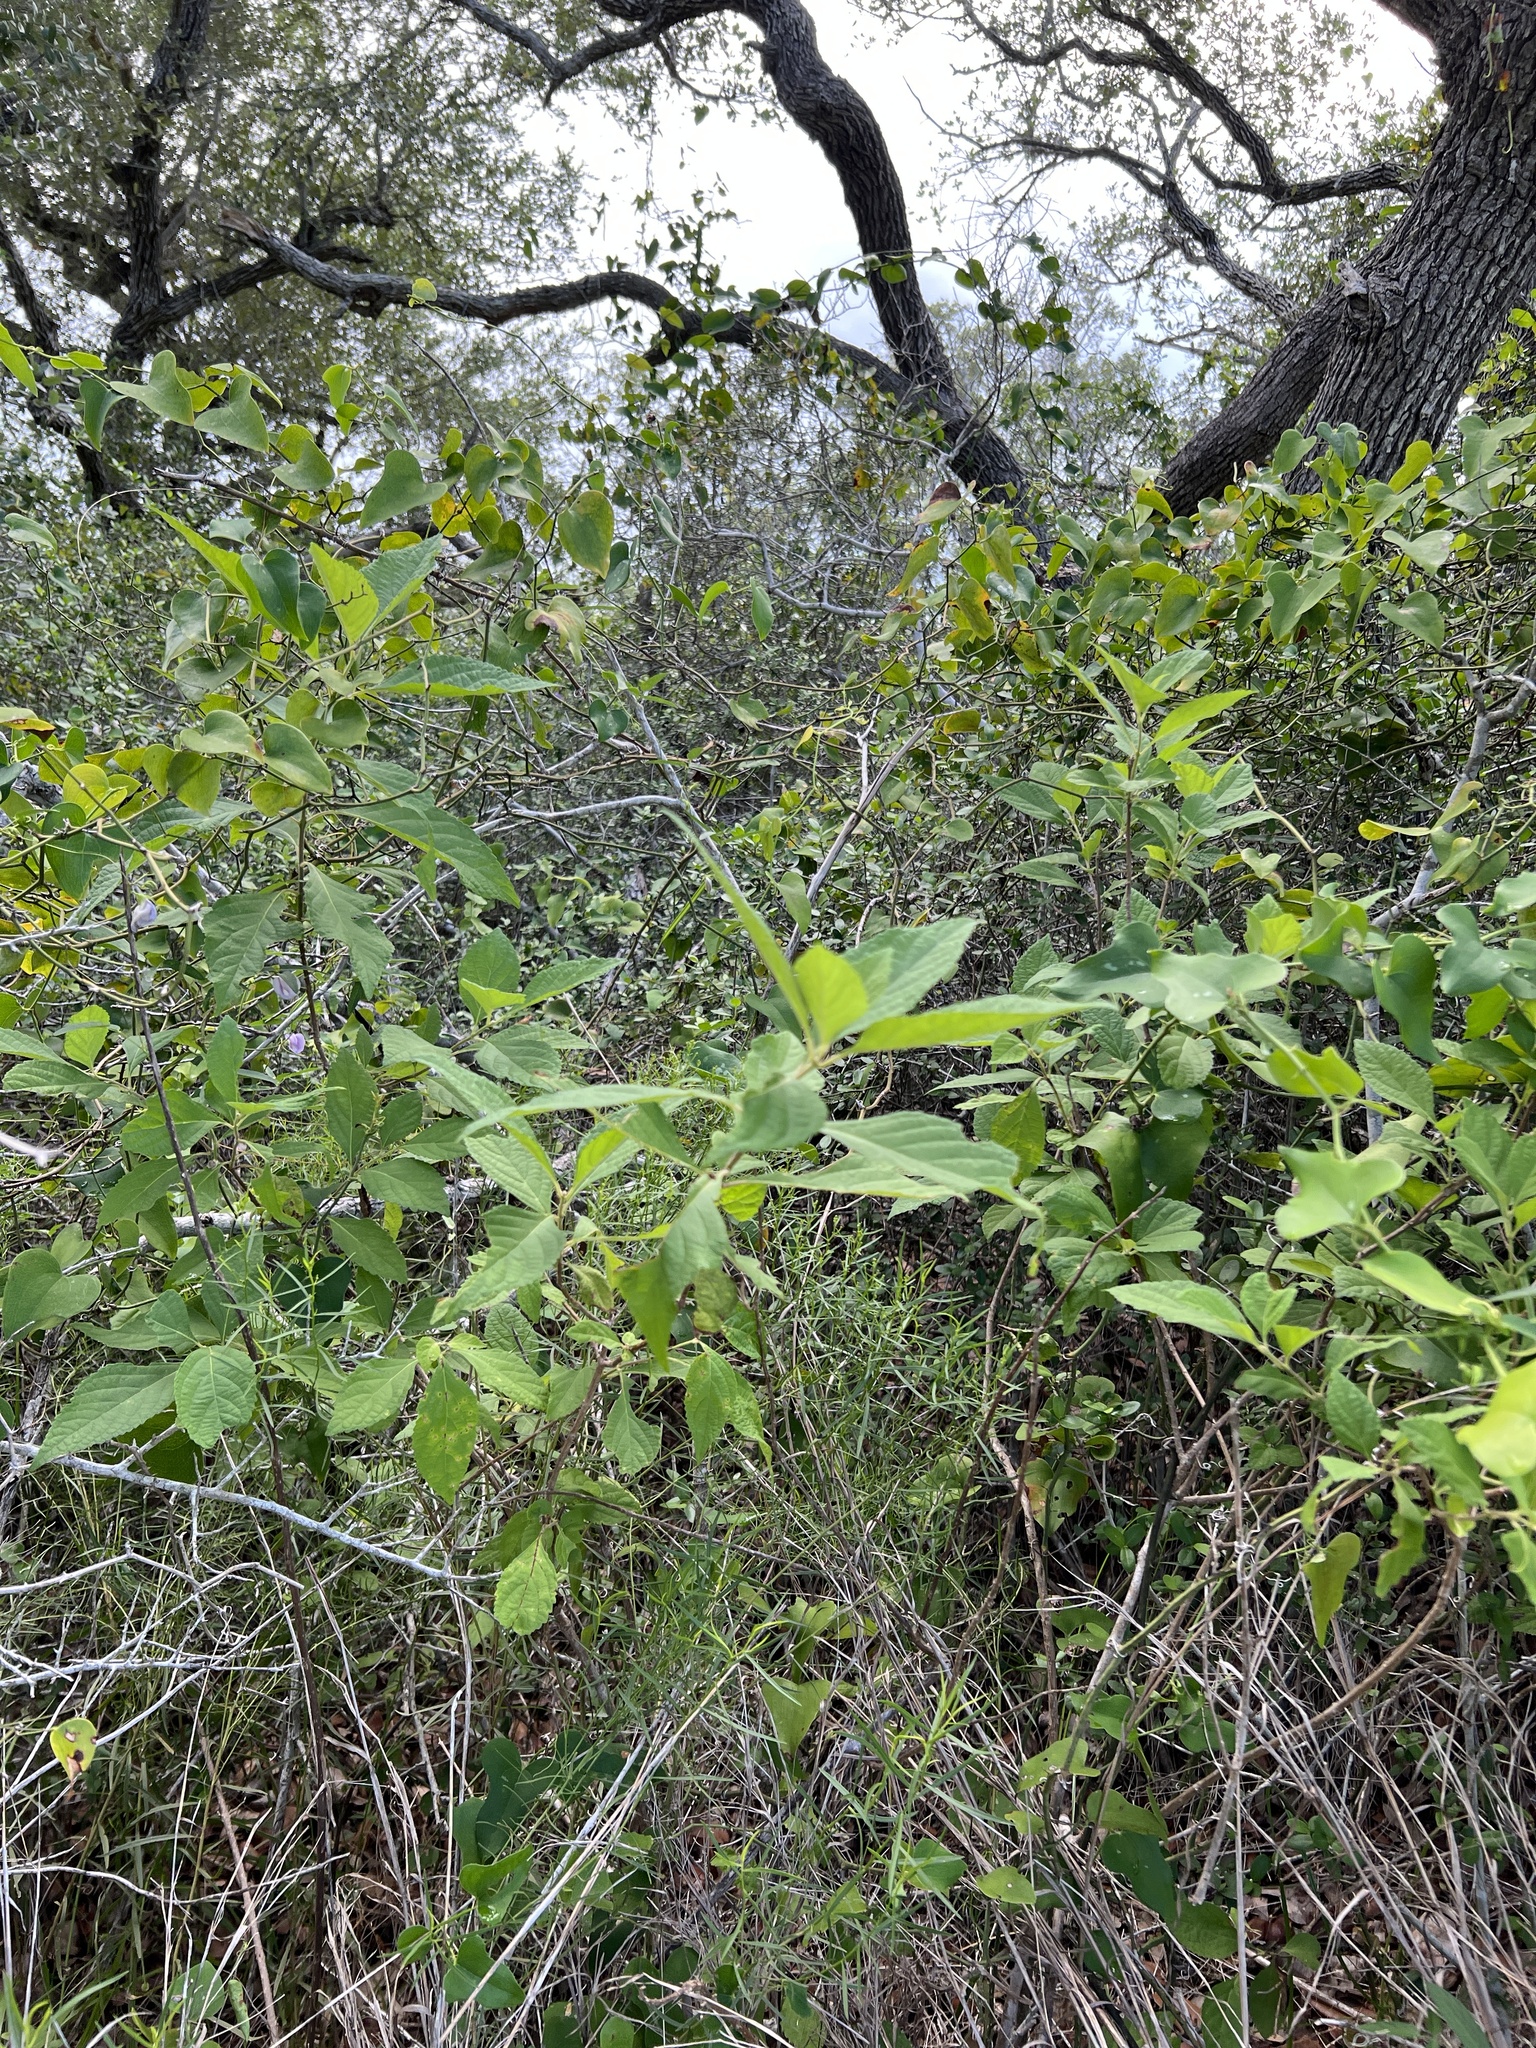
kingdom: Plantae
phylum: Tracheophyta
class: Magnoliopsida
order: Lamiales
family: Lamiaceae
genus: Callicarpa
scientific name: Callicarpa americana
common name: American beautyberry
